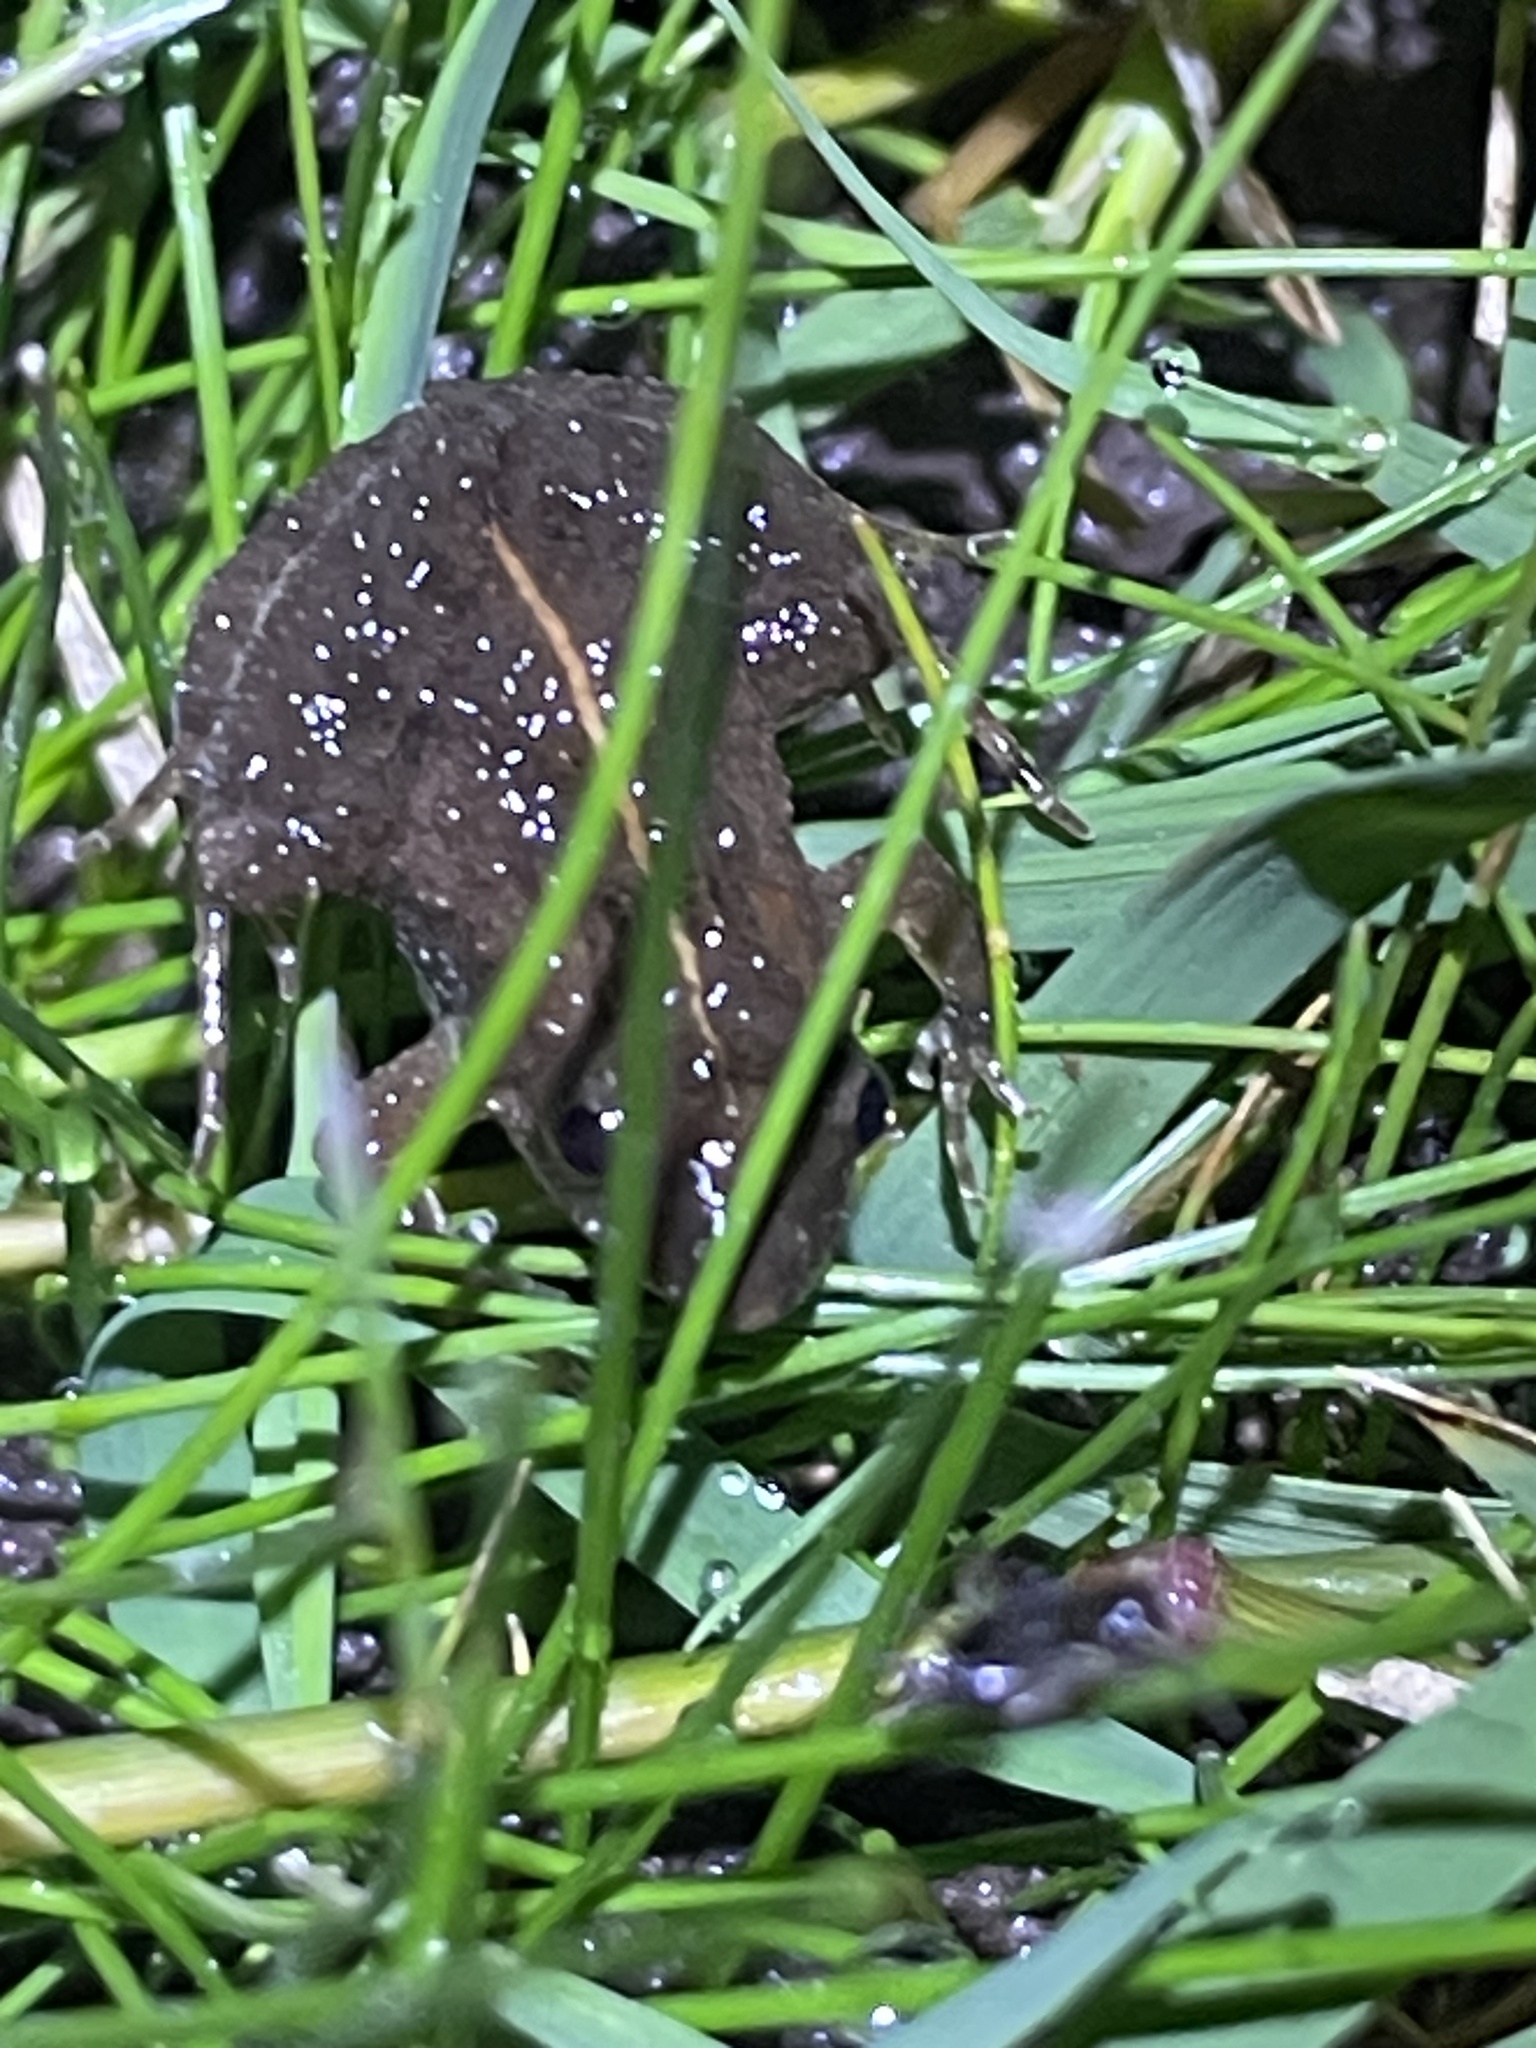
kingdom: Animalia
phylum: Chordata
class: Amphibia
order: Anura
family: Leptodactylidae
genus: Pseudopaludicola
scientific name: Pseudopaludicola falcipes
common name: Hensel’s swamp frog
